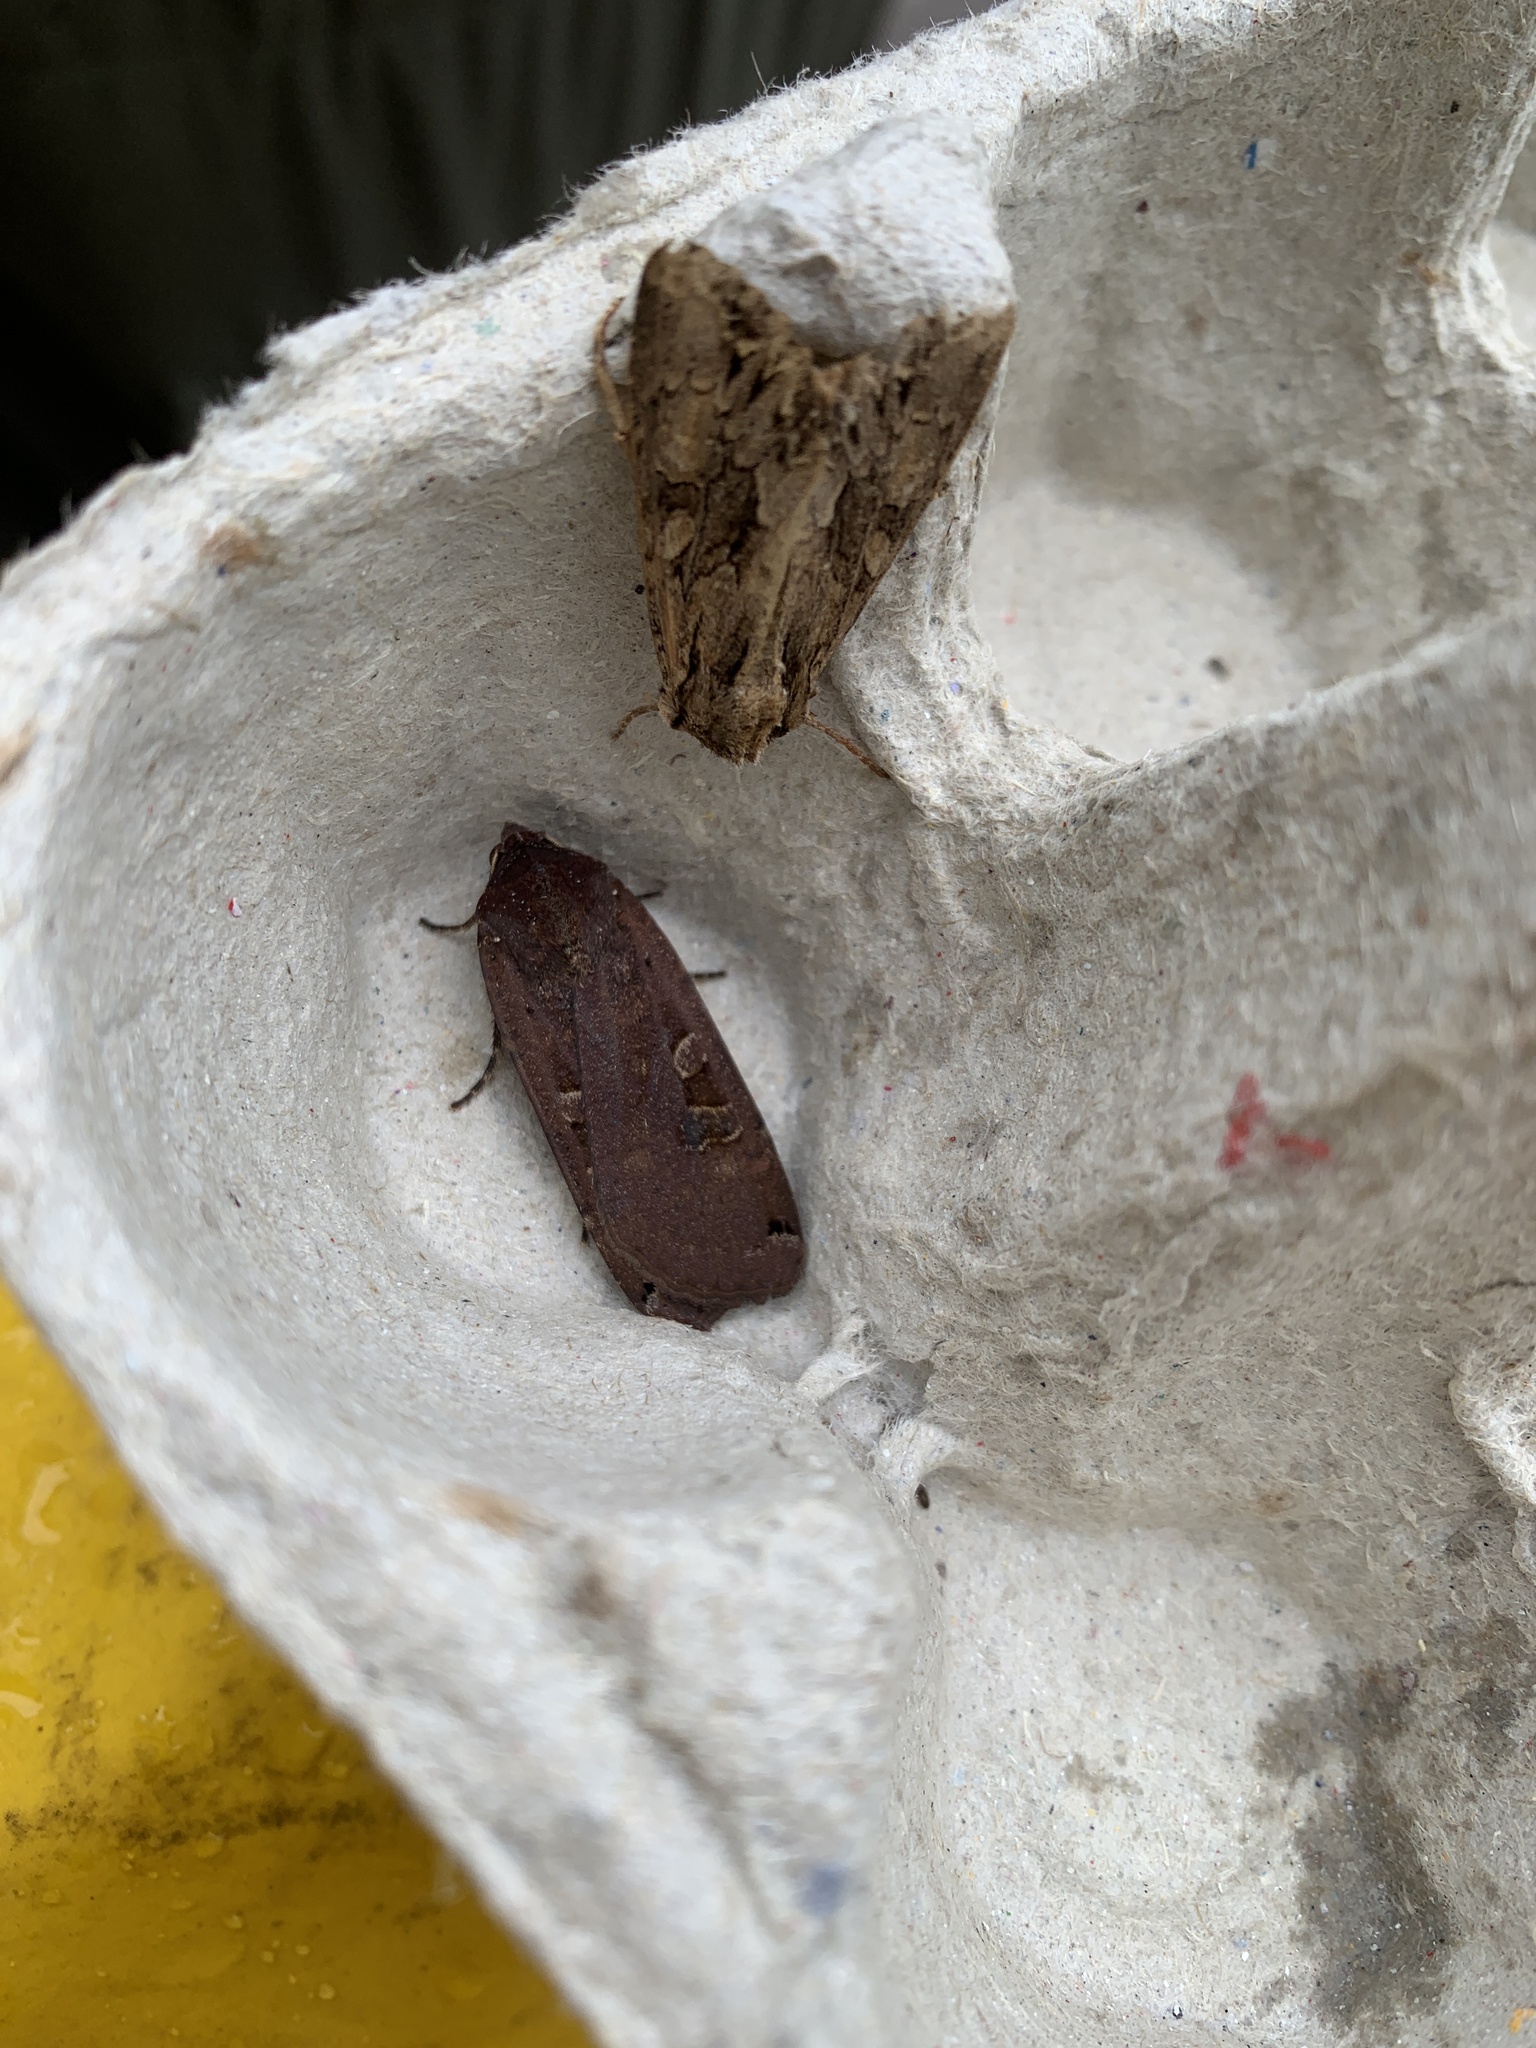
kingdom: Animalia
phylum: Arthropoda
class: Insecta
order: Lepidoptera
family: Noctuidae
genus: Xestia
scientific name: Xestia xanthographa
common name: Square-spot rustic
